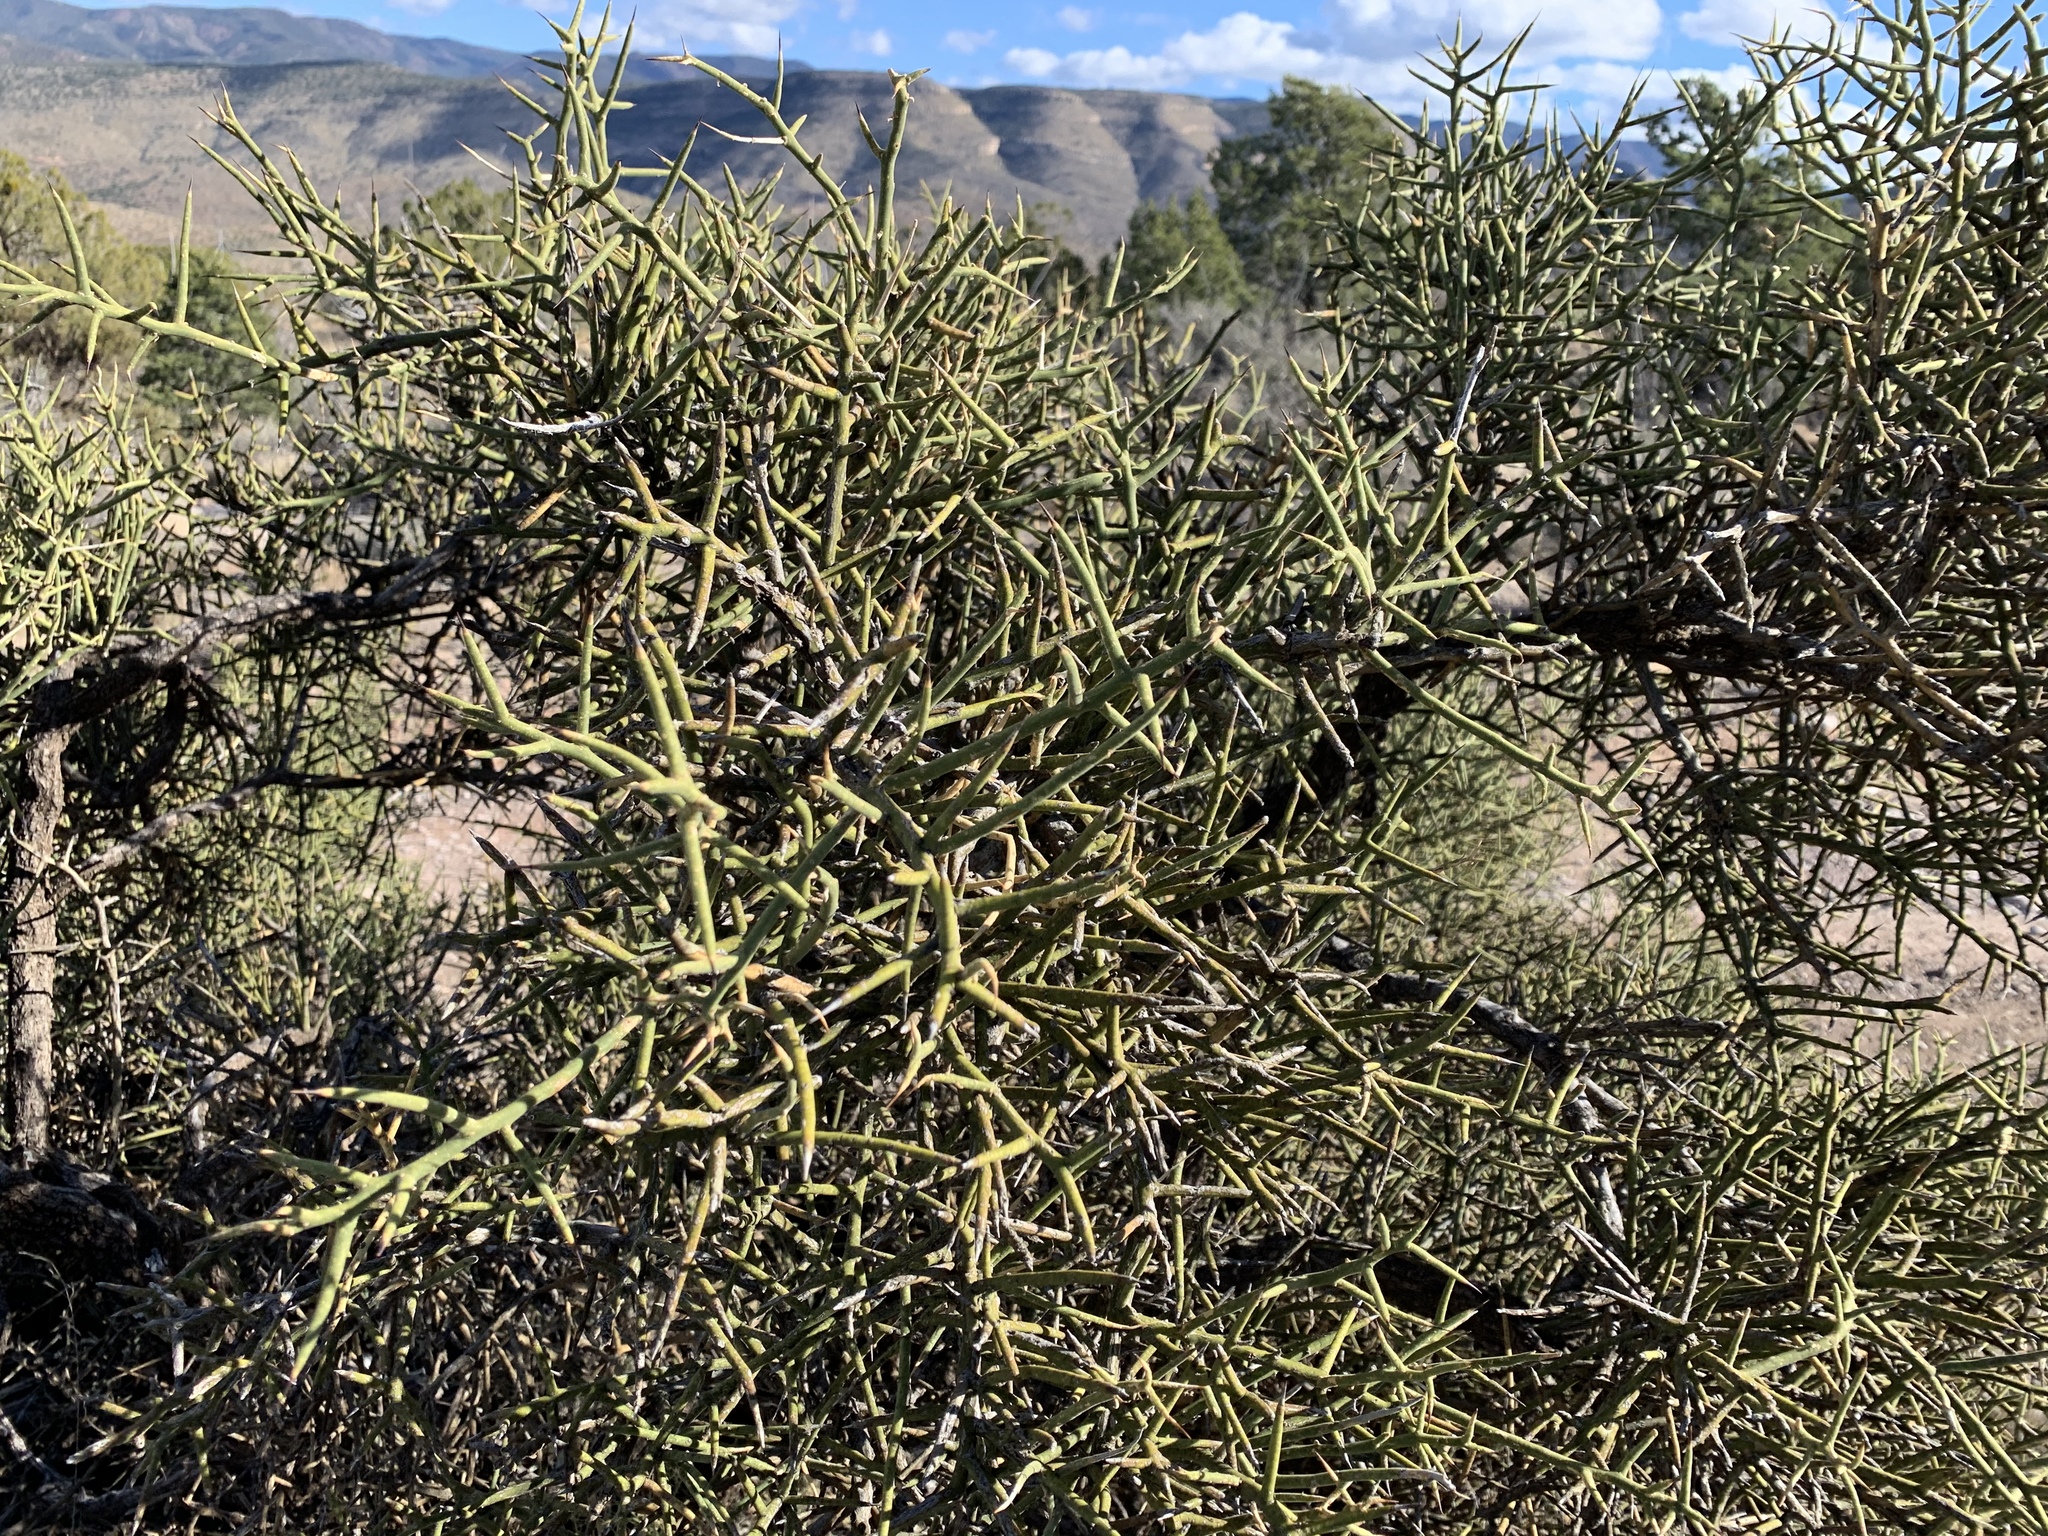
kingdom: Plantae
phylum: Tracheophyta
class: Magnoliopsida
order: Brassicales
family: Koeberliniaceae
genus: Koeberlinia
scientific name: Koeberlinia spinosa
